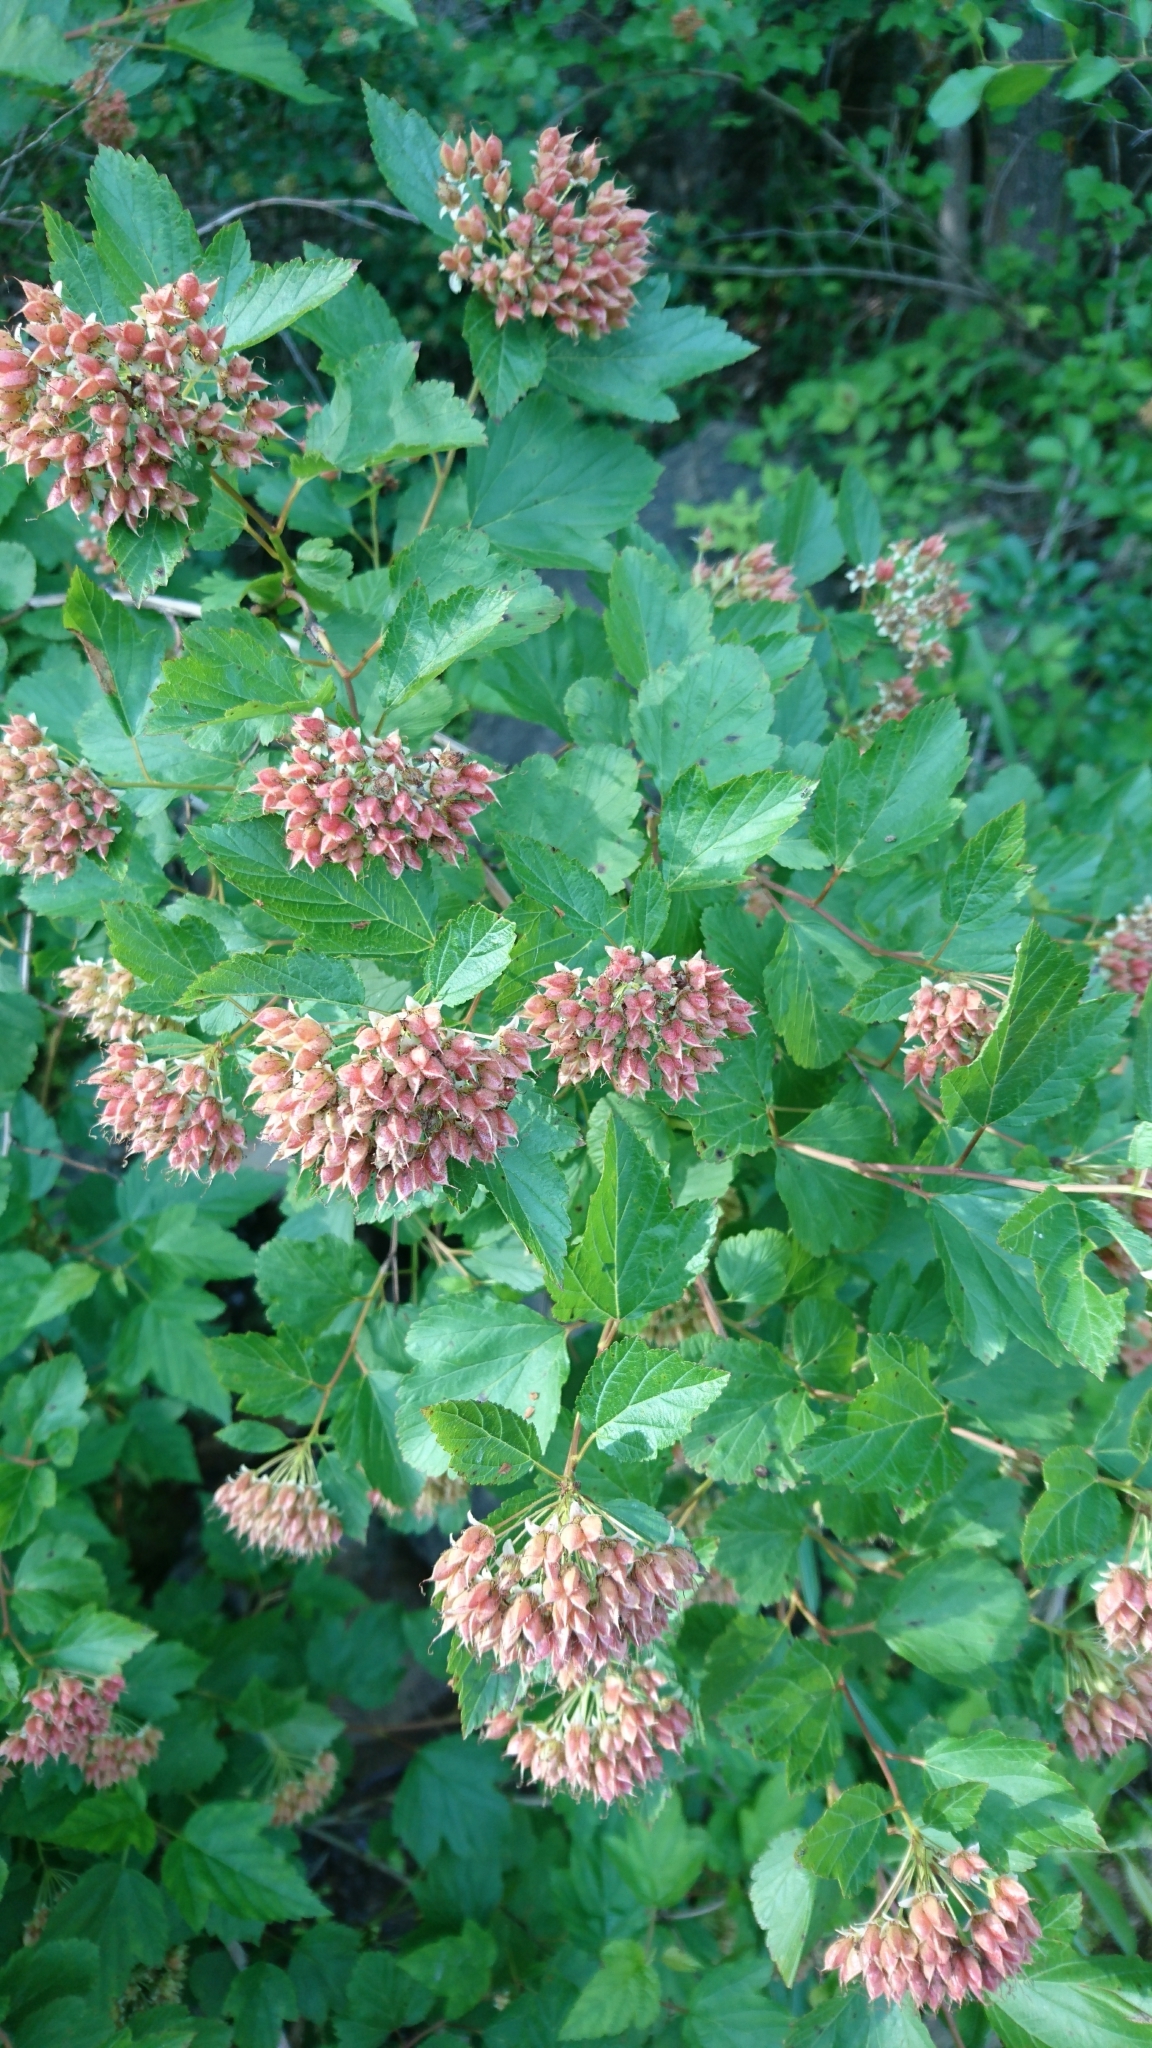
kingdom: Plantae
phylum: Tracheophyta
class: Magnoliopsida
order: Rosales
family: Rosaceae
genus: Physocarpus
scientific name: Physocarpus intermedius
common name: Midwestern ninebark
